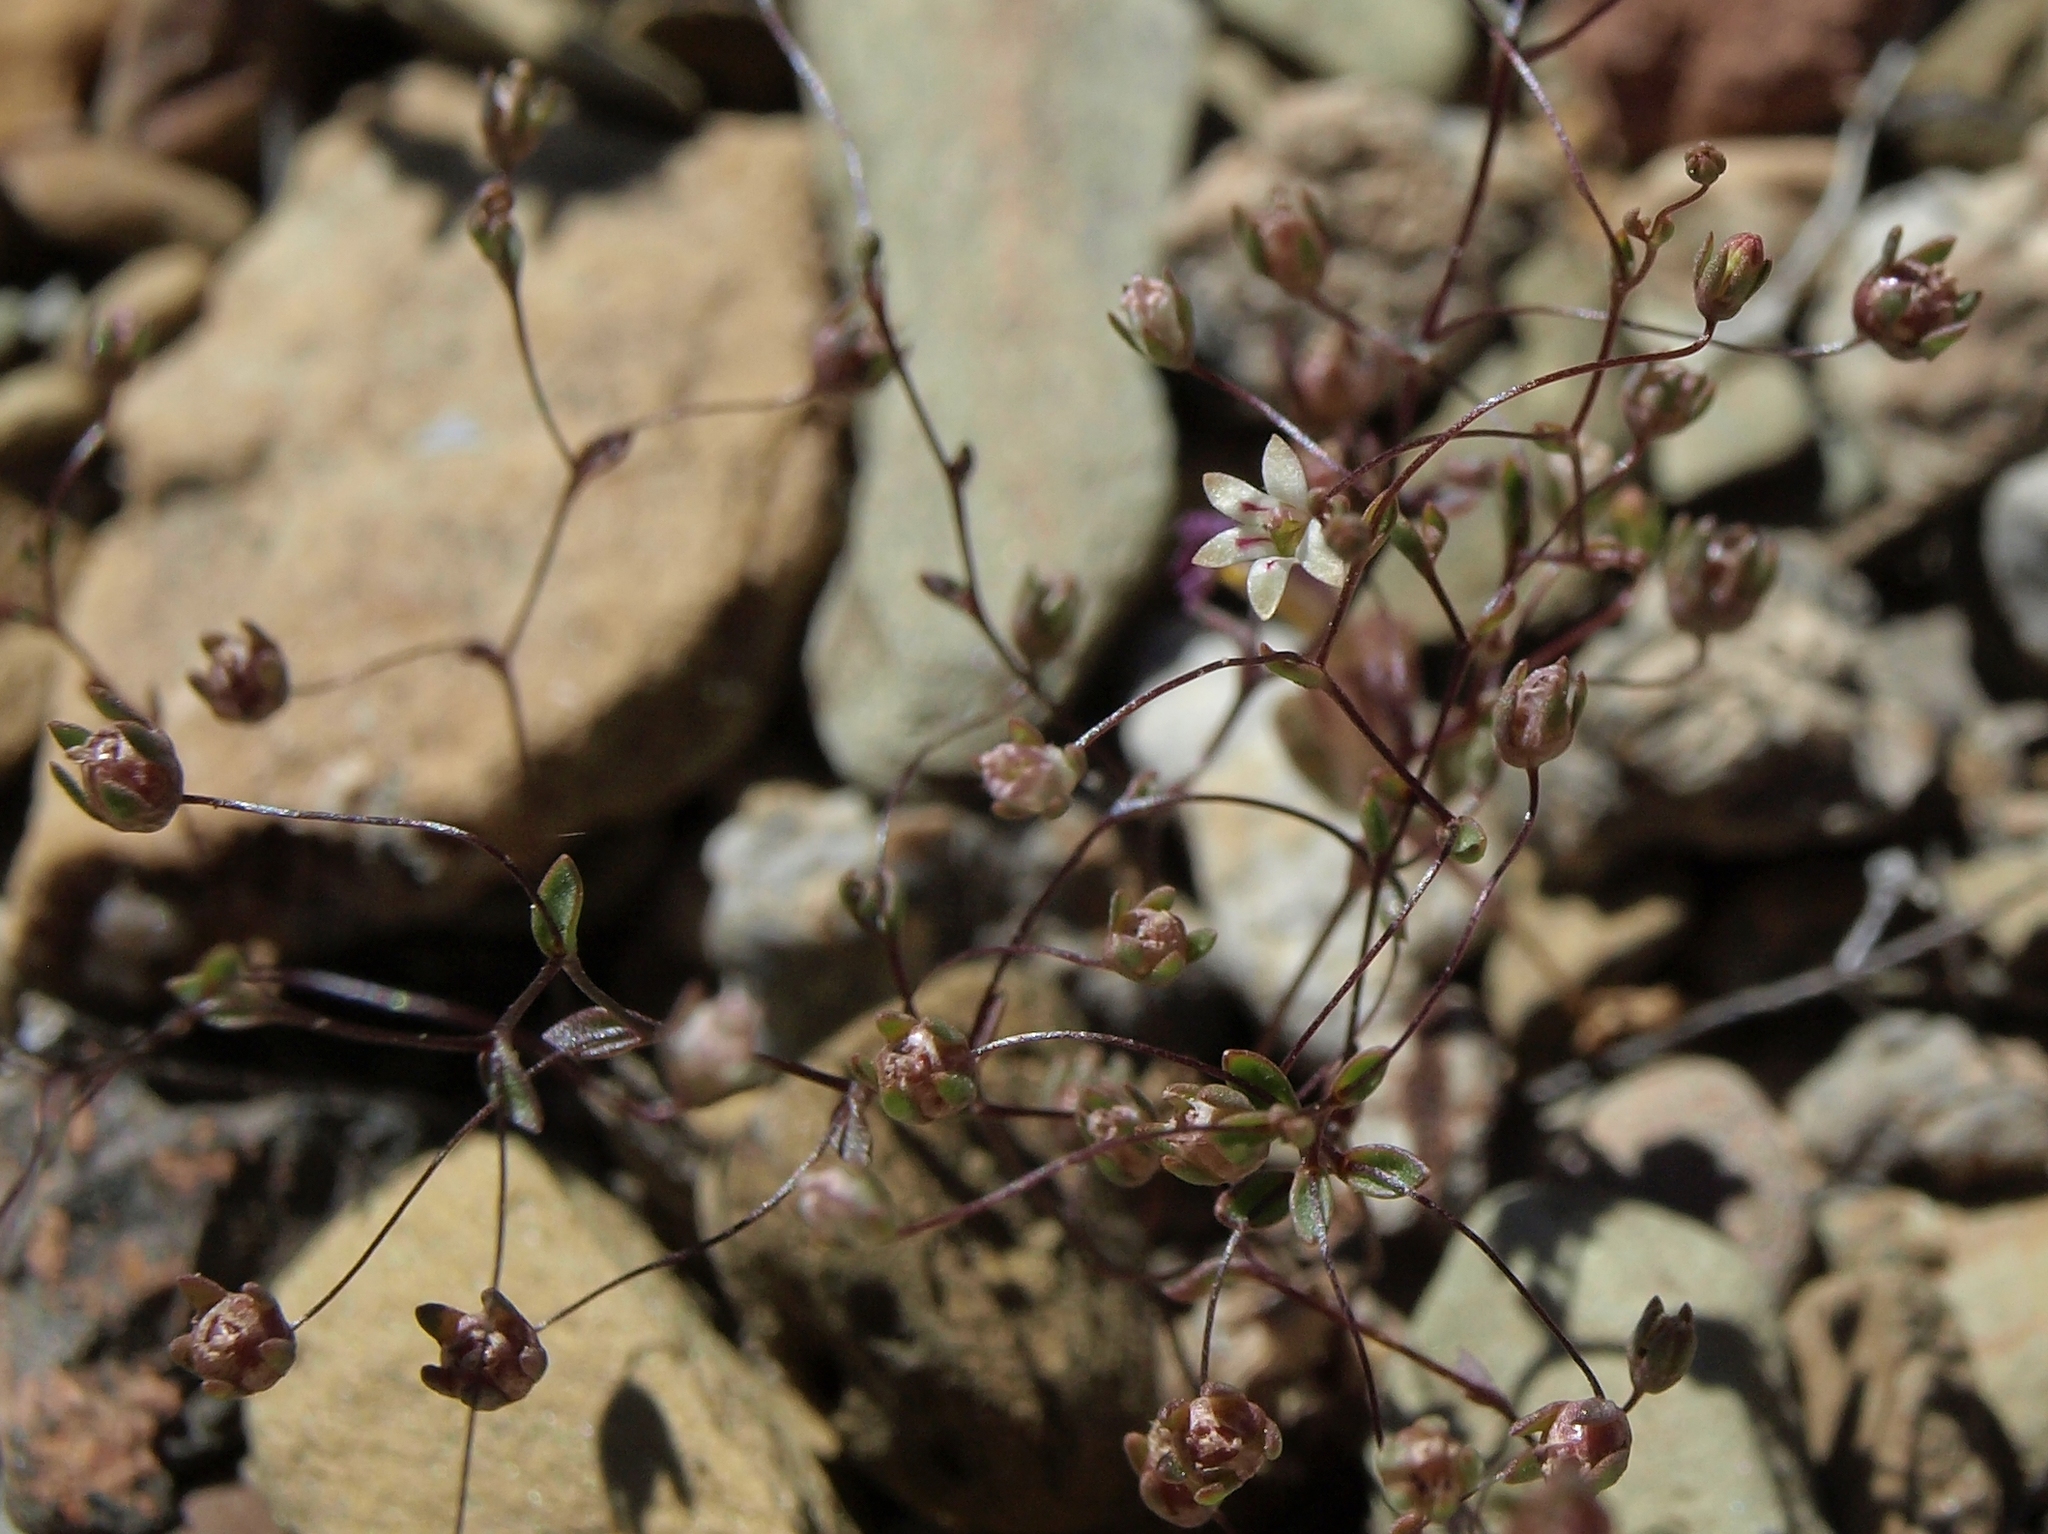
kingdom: Plantae
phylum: Tracheophyta
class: Magnoliopsida
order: Asterales
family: Campanulaceae
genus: Nemacladus
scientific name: Nemacladus inyoensis
